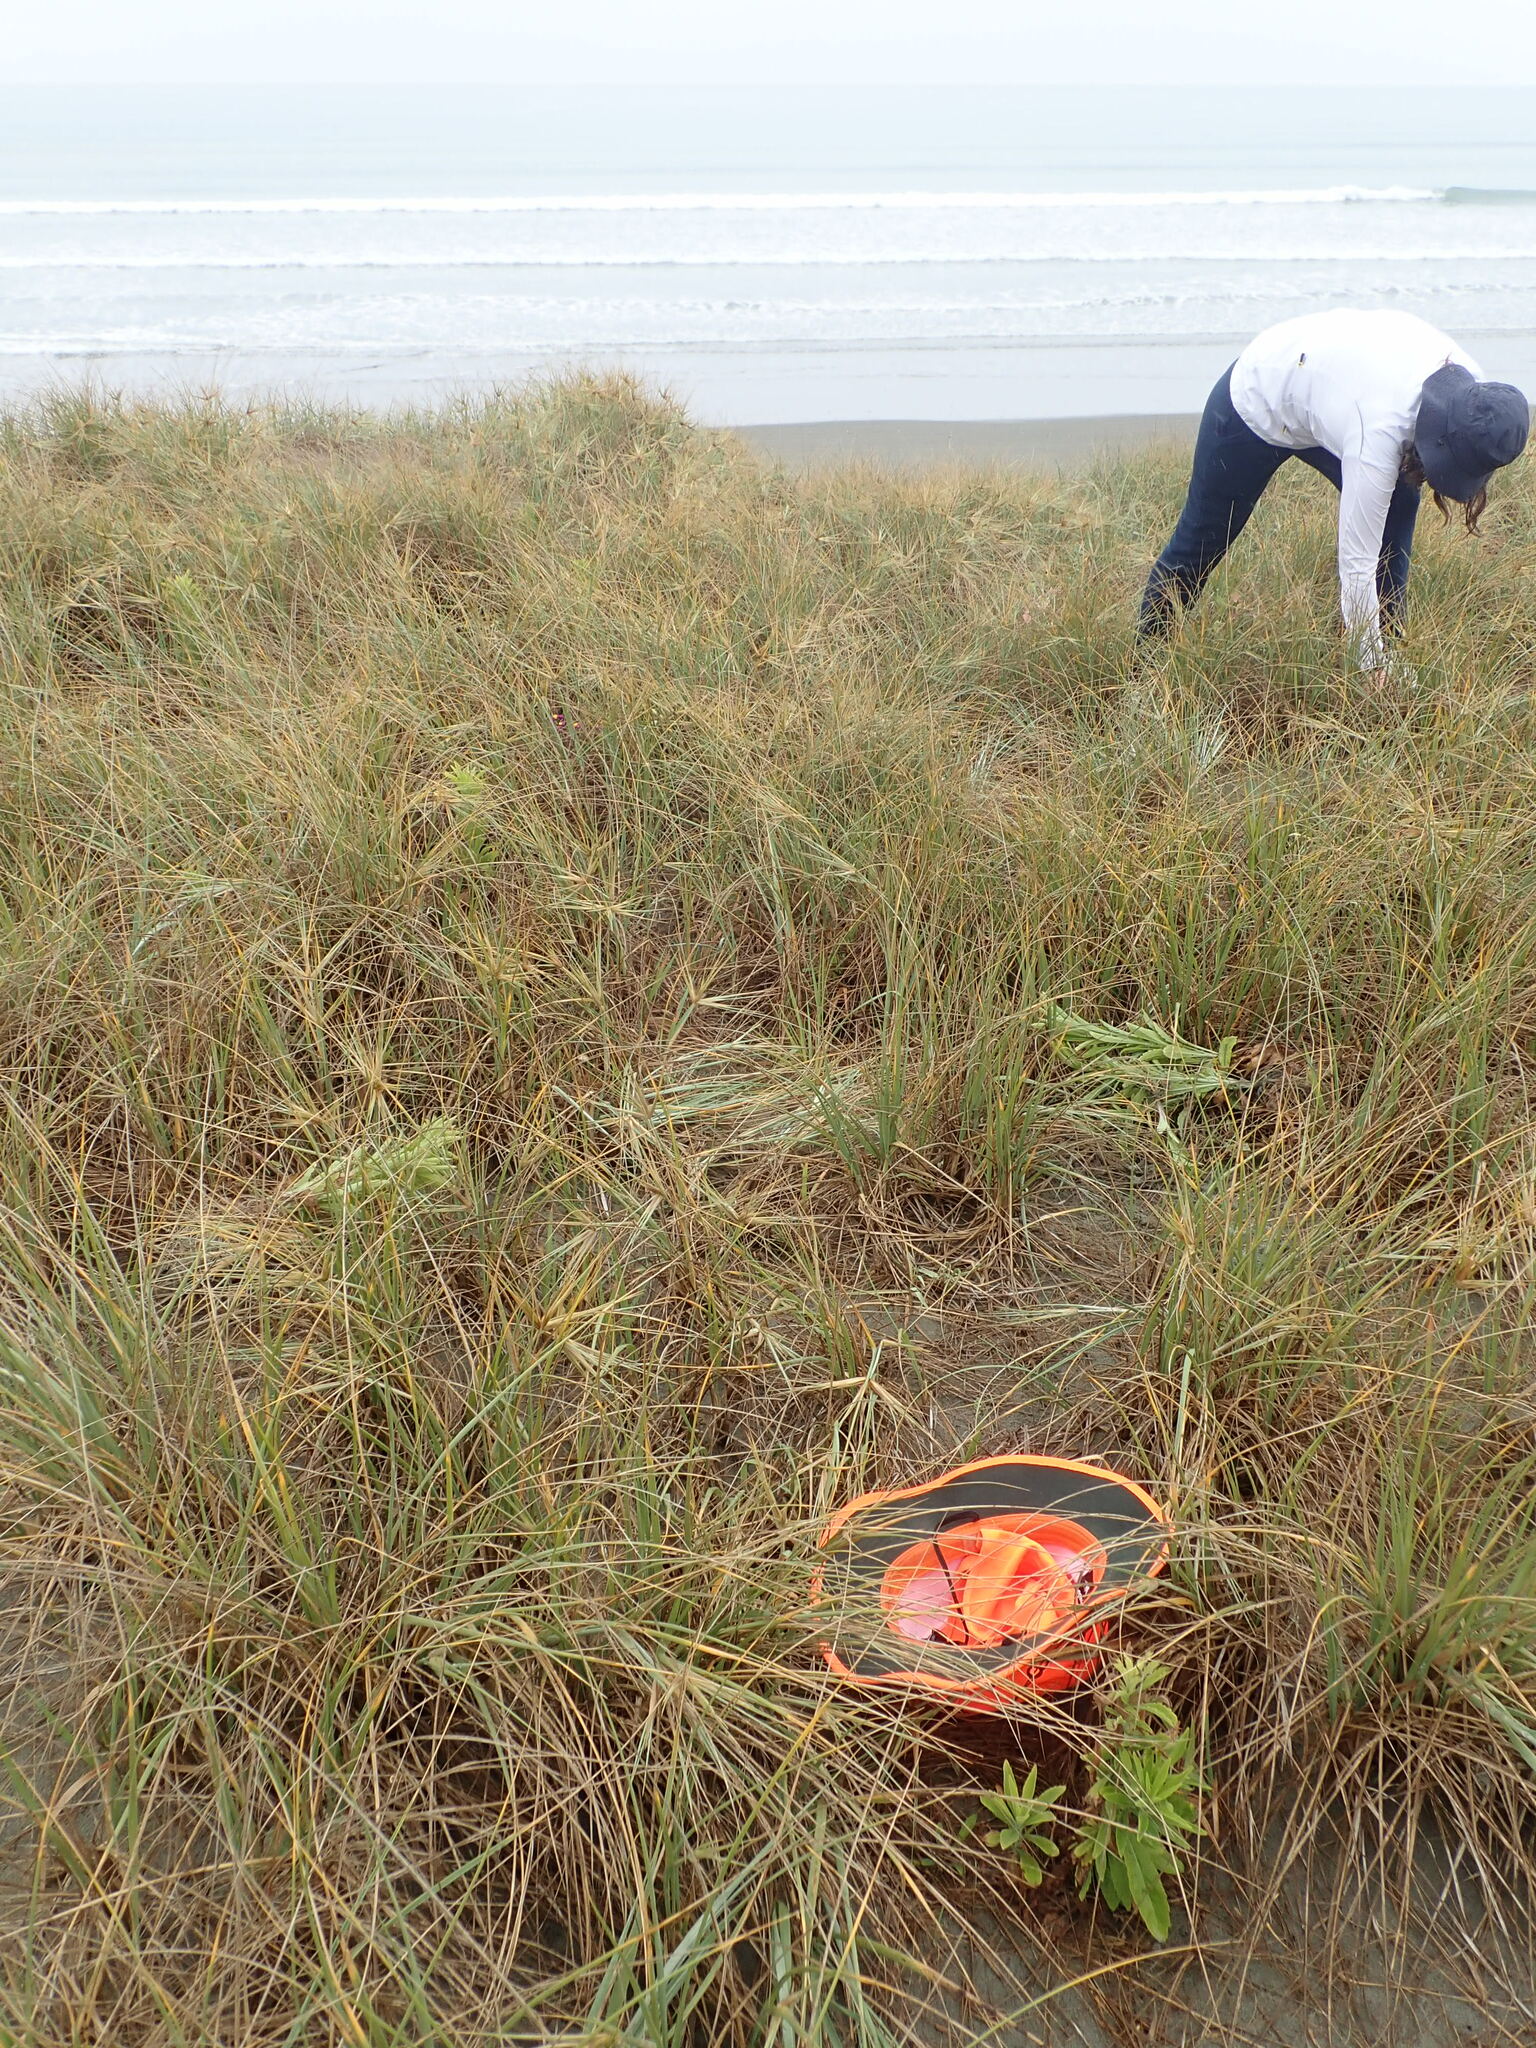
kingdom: Plantae
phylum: Tracheophyta
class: Magnoliopsida
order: Malvales
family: Thymelaeaceae
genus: Pimelea
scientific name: Pimelea villosa
